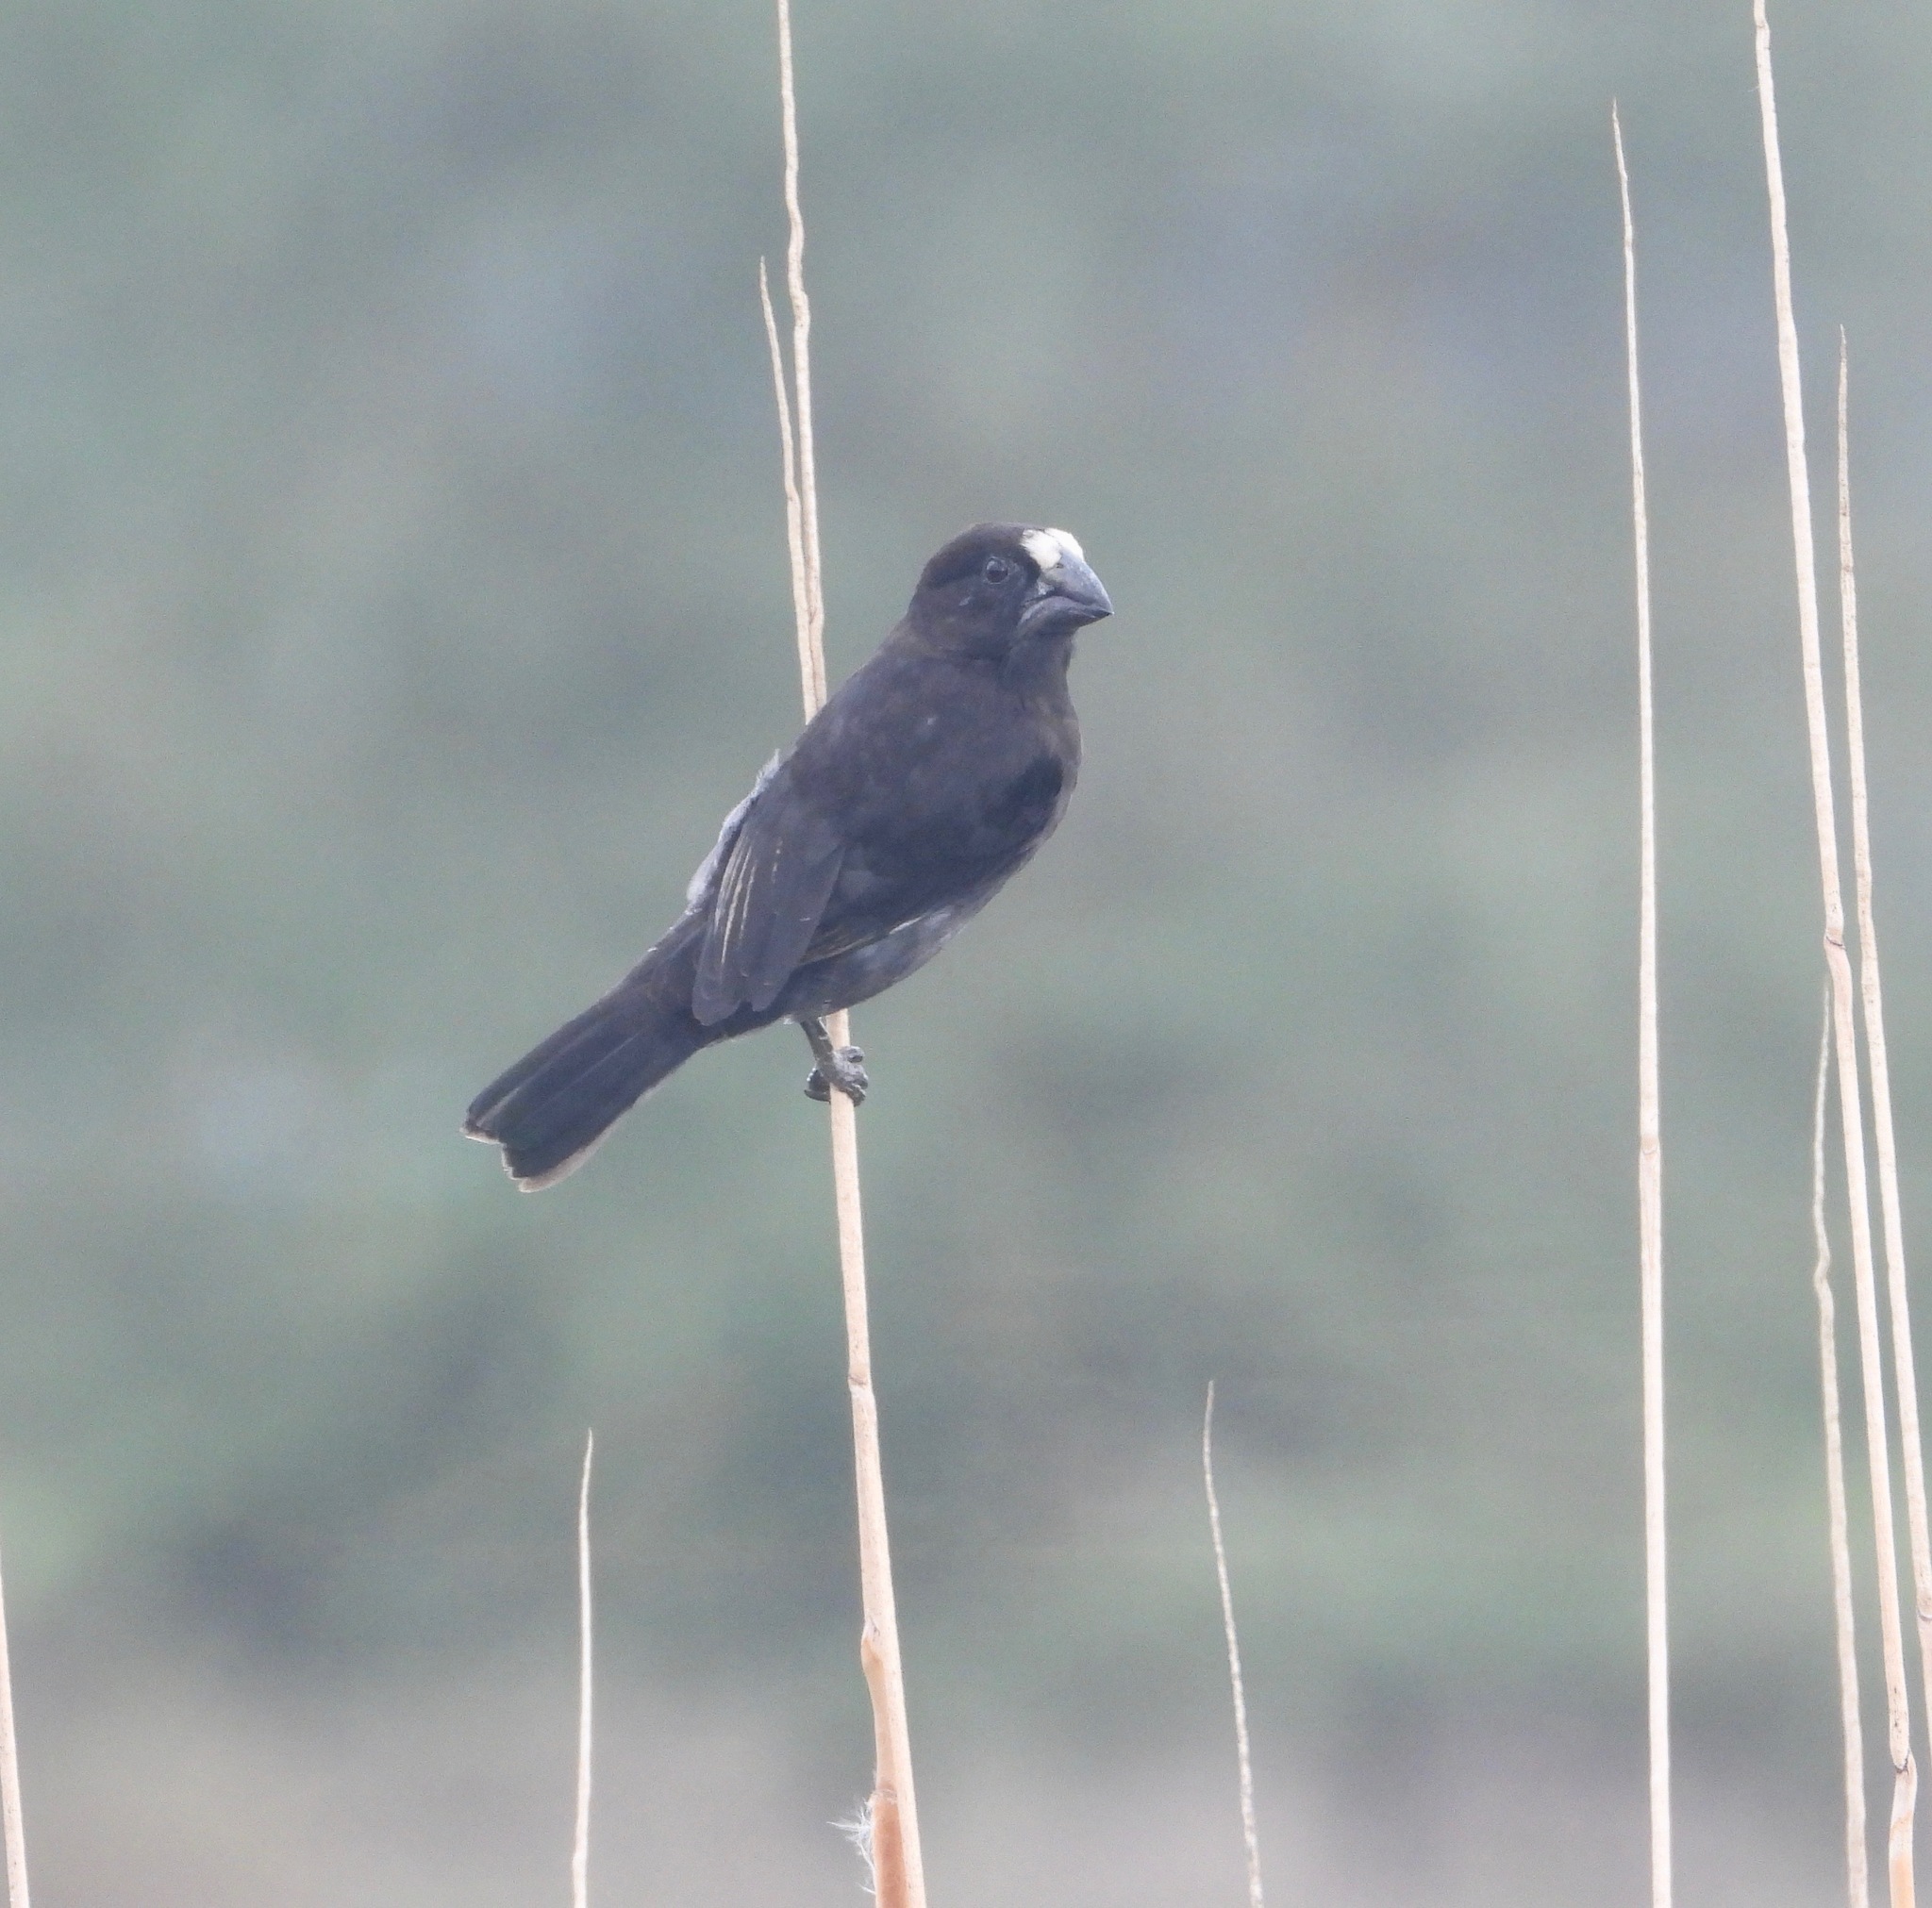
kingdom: Animalia
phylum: Chordata
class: Aves
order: Passeriformes
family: Ploceidae
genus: Amblyospiza
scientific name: Amblyospiza albifrons
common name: Thick-billed weaver
